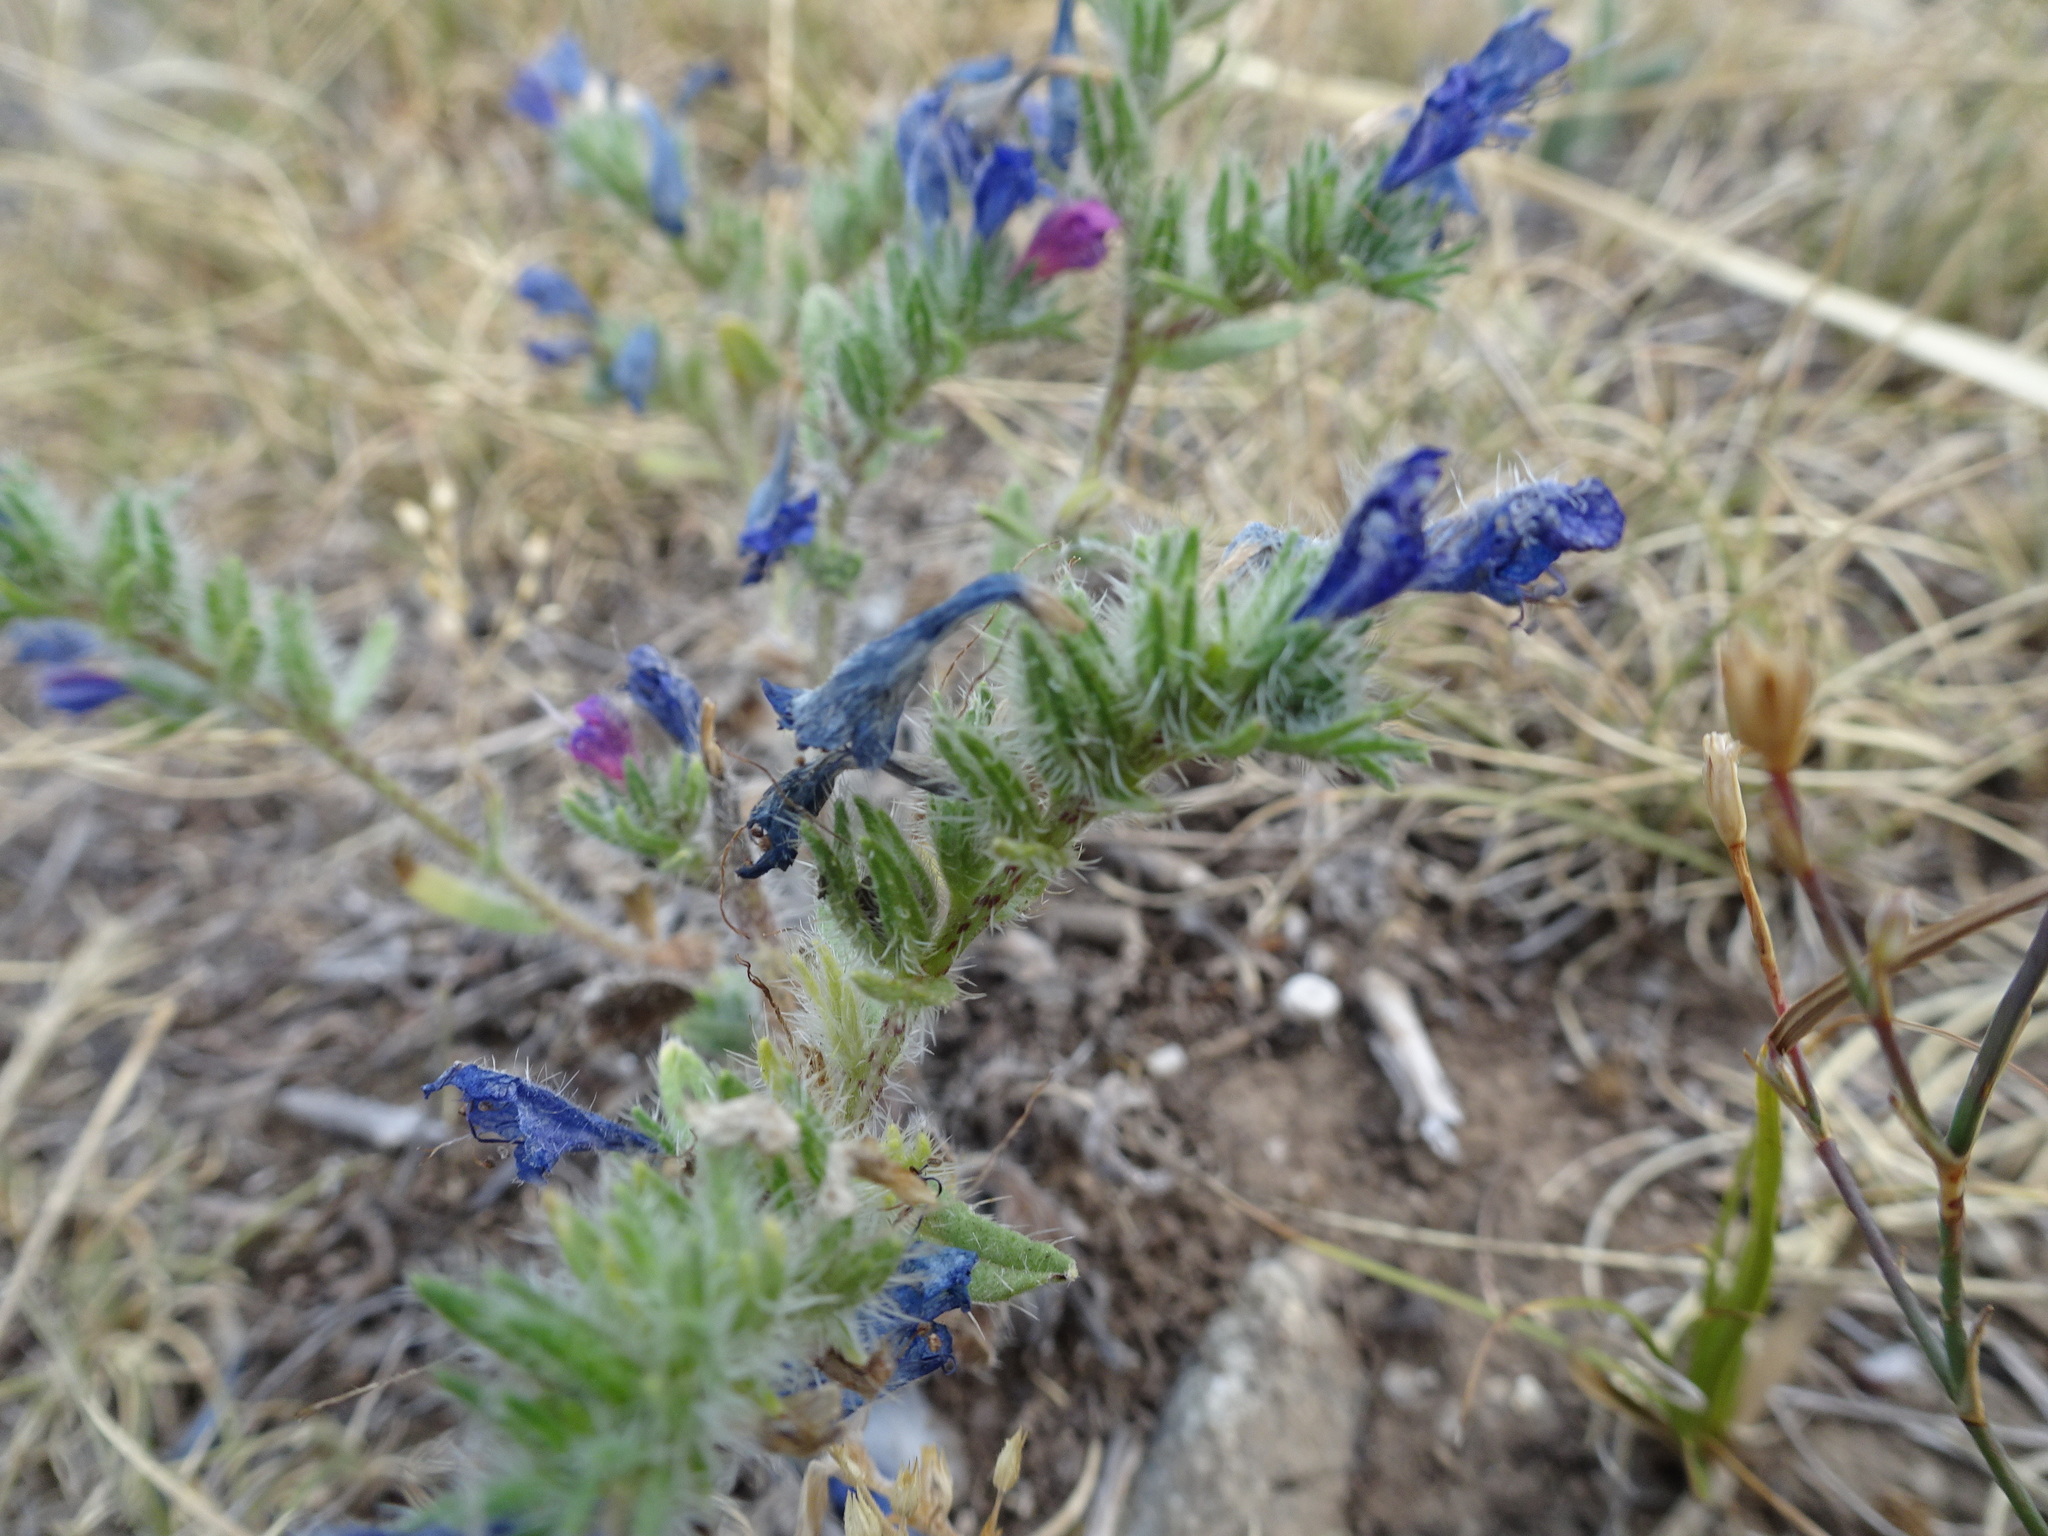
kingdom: Plantae
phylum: Tracheophyta
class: Magnoliopsida
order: Boraginales
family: Boraginaceae
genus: Echium
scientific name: Echium vulgare
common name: Common viper's bugloss
